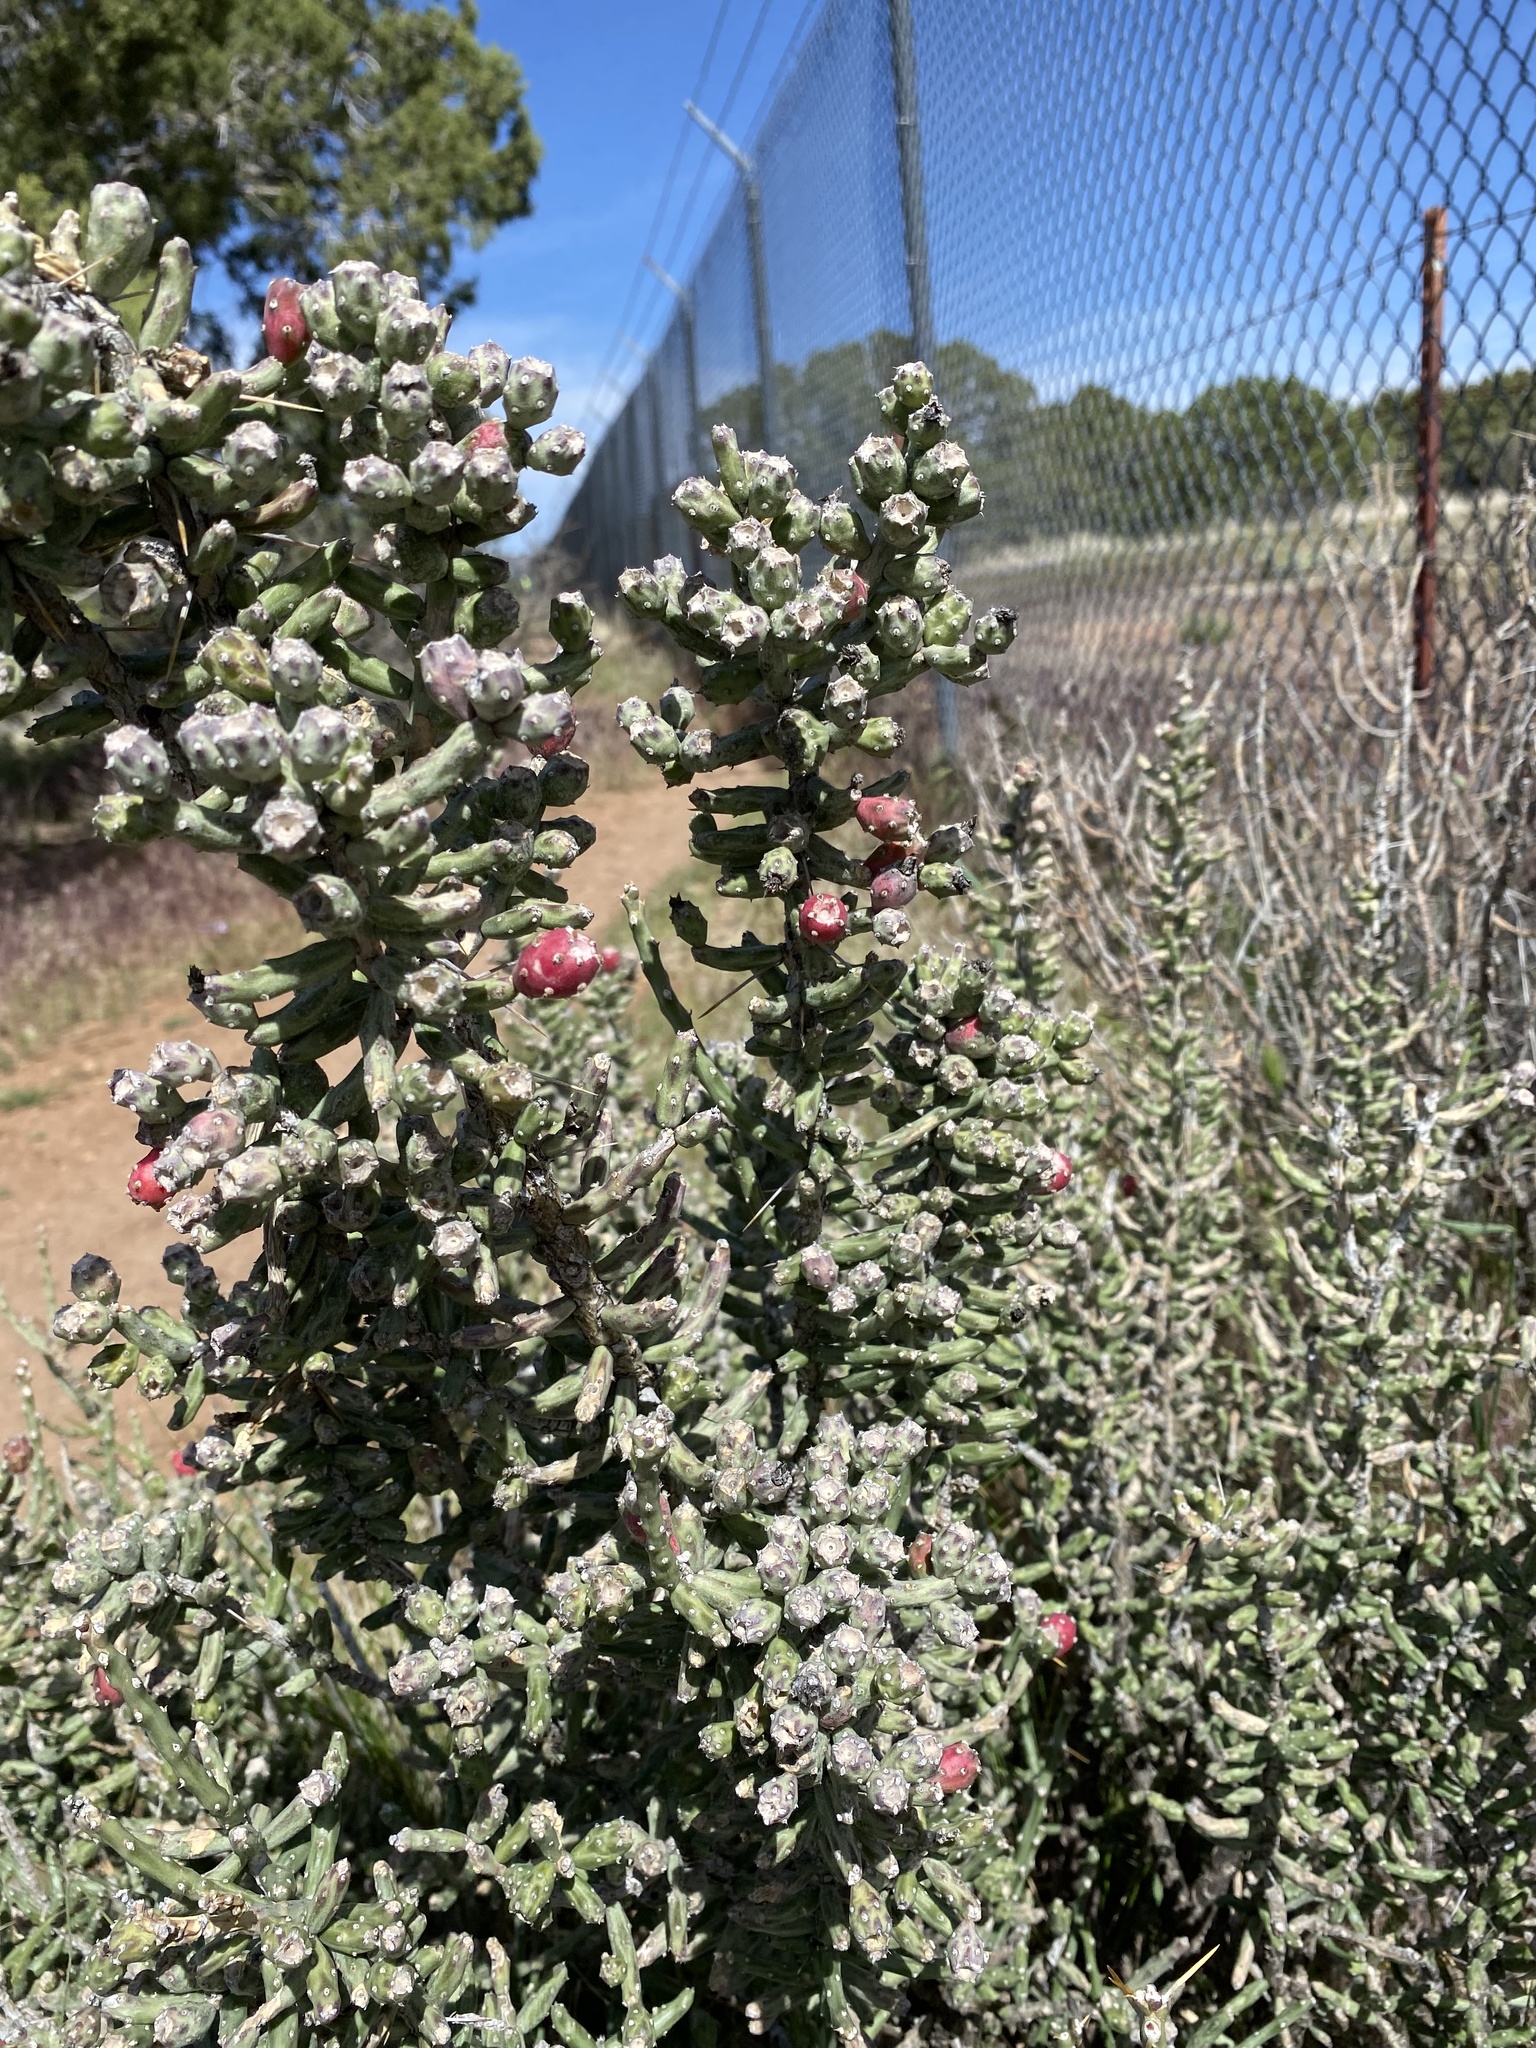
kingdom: Plantae
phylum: Tracheophyta
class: Magnoliopsida
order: Caryophyllales
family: Cactaceae
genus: Cylindropuntia
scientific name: Cylindropuntia leptocaulis
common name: Christmas cactus
